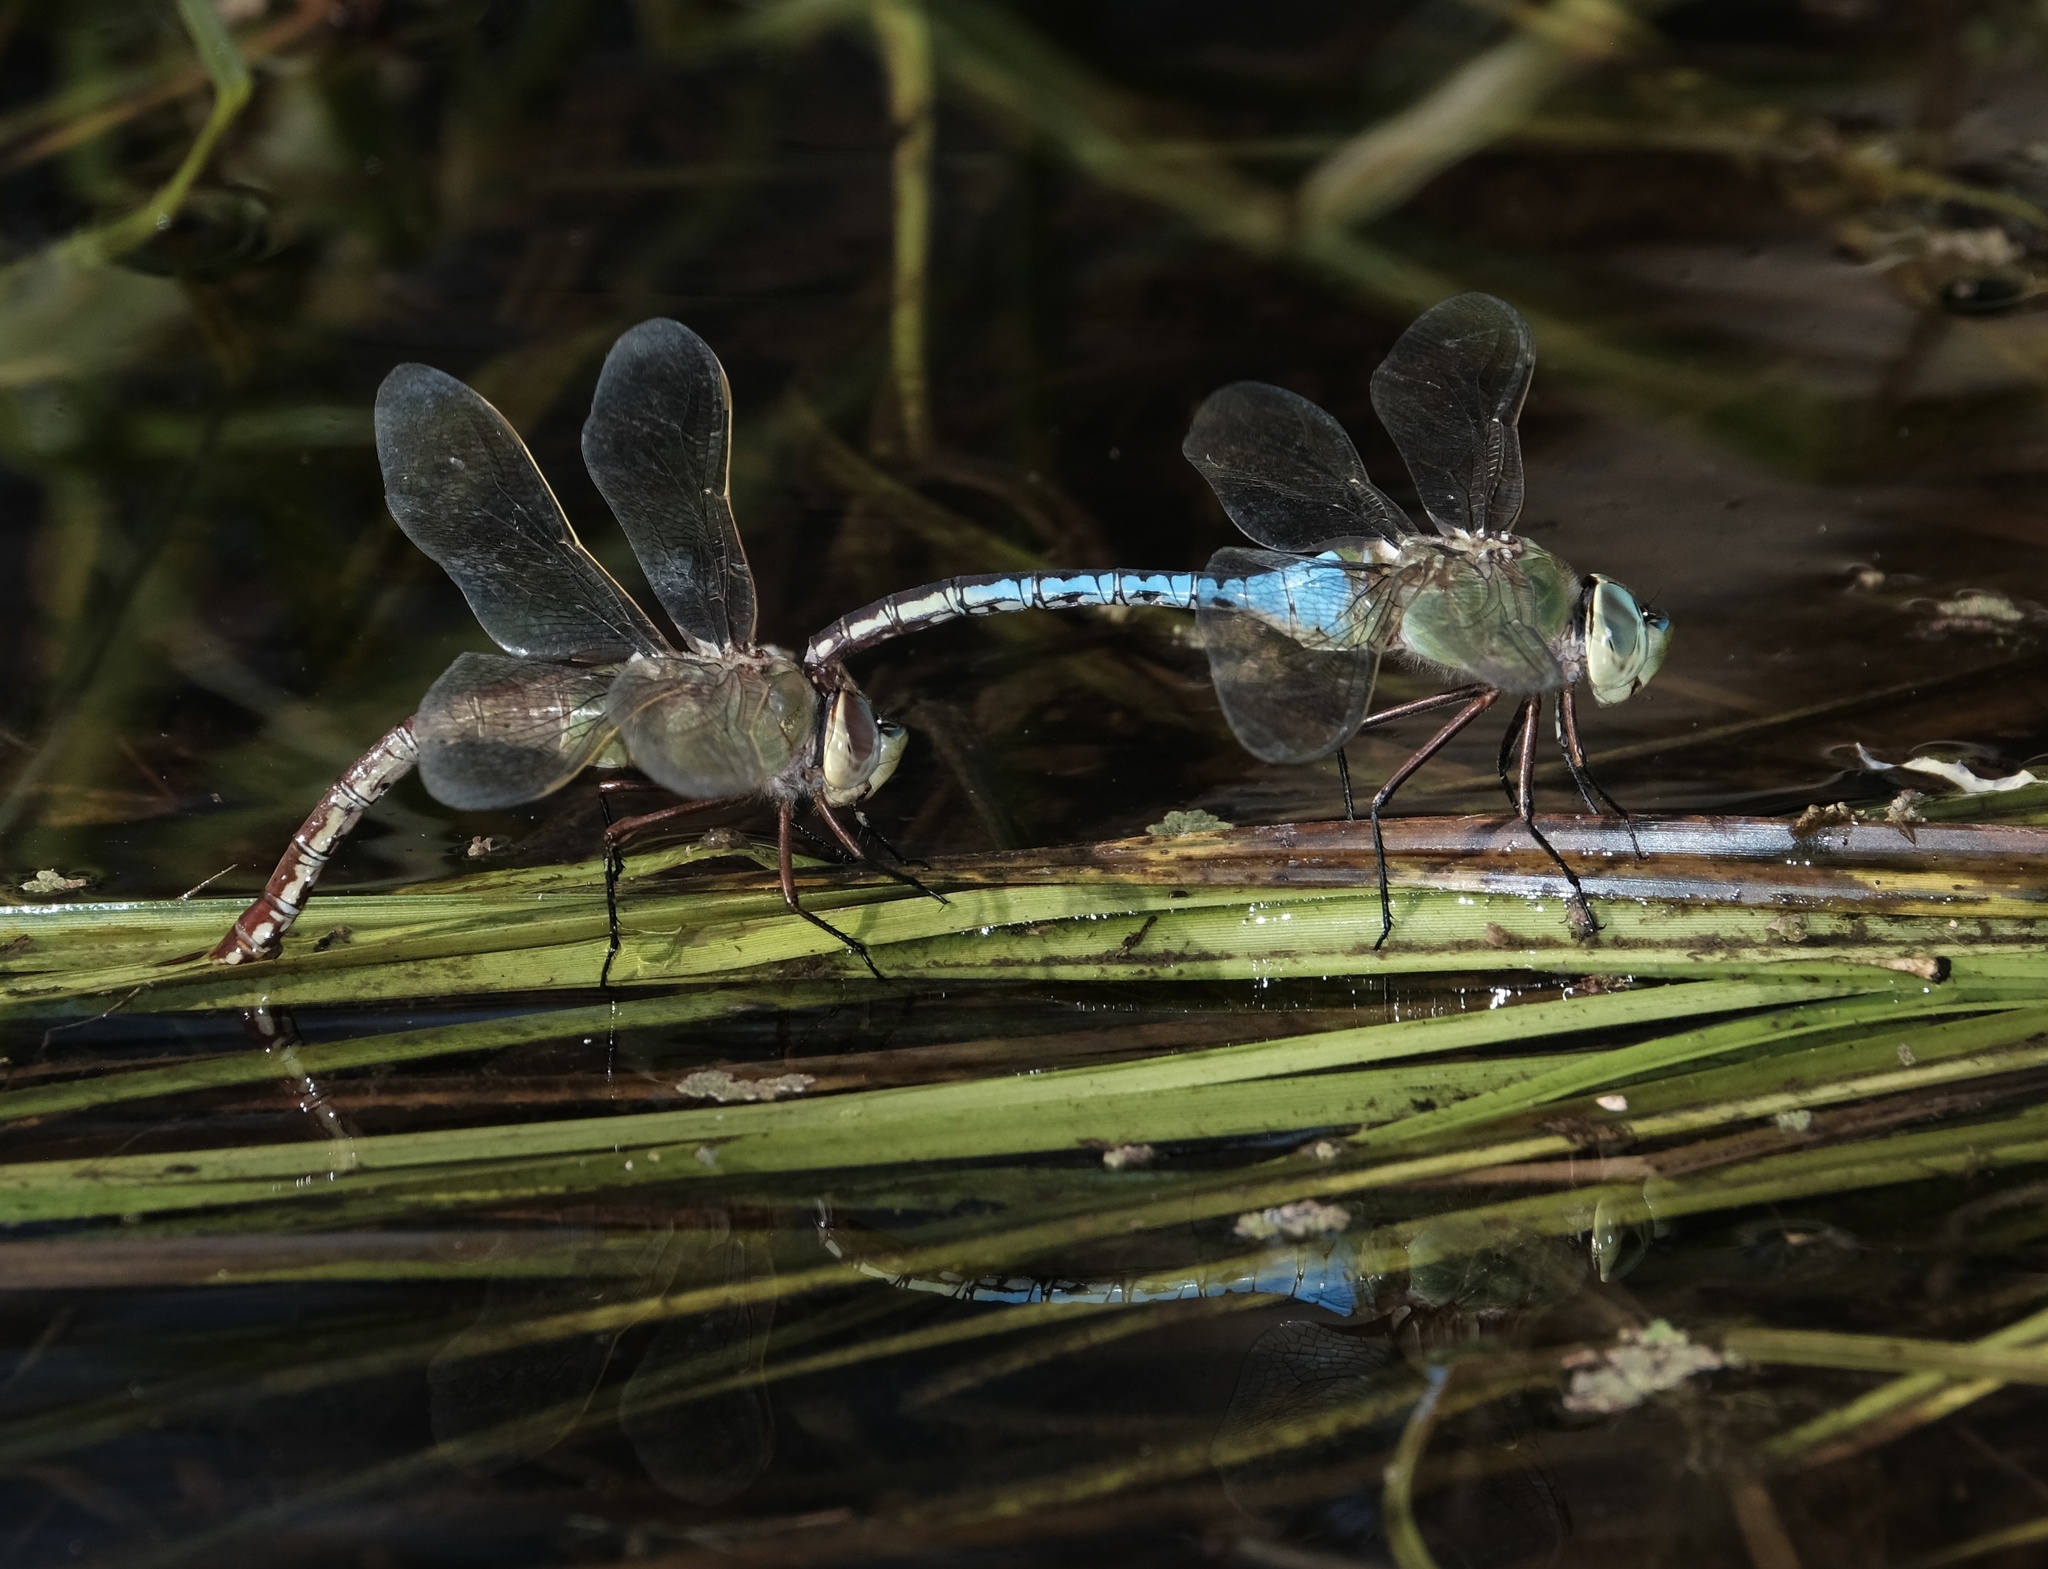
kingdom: Animalia
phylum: Arthropoda
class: Insecta
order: Odonata
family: Aeshnidae
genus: Anax
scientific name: Anax junius
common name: Common green darner
